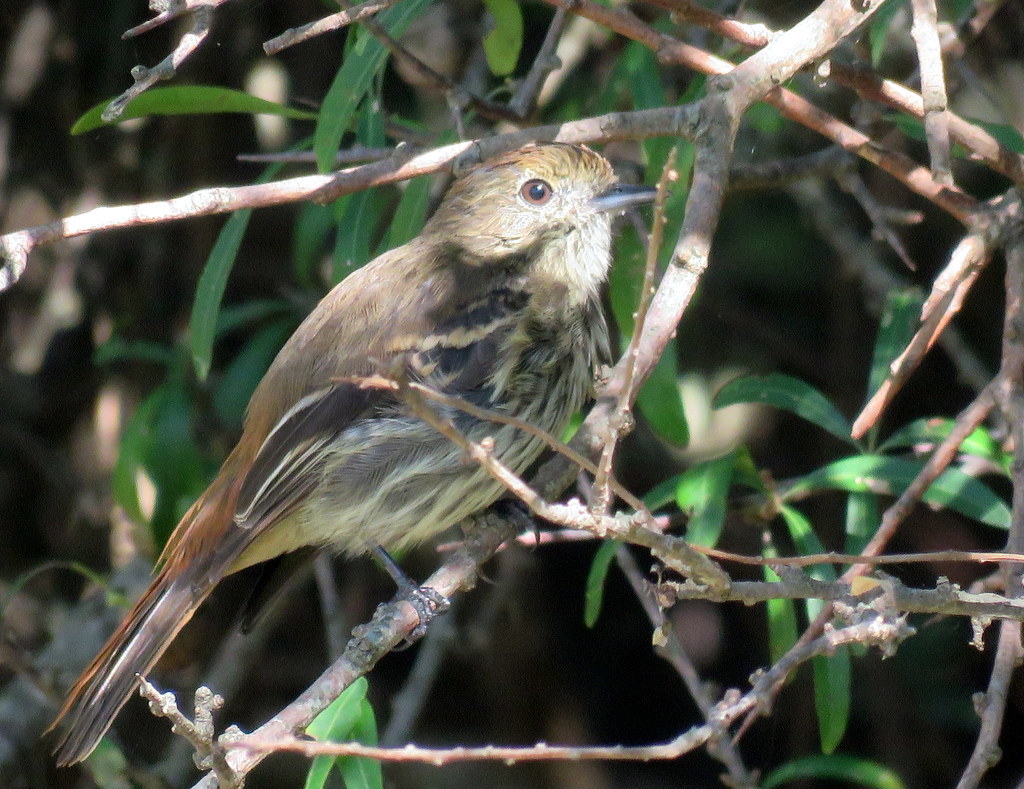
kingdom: Animalia
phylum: Chordata
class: Aves
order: Passeriformes
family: Tyrannidae
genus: Knipolegus
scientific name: Knipolegus cyanirostris
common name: Blue-billed black tyrant
